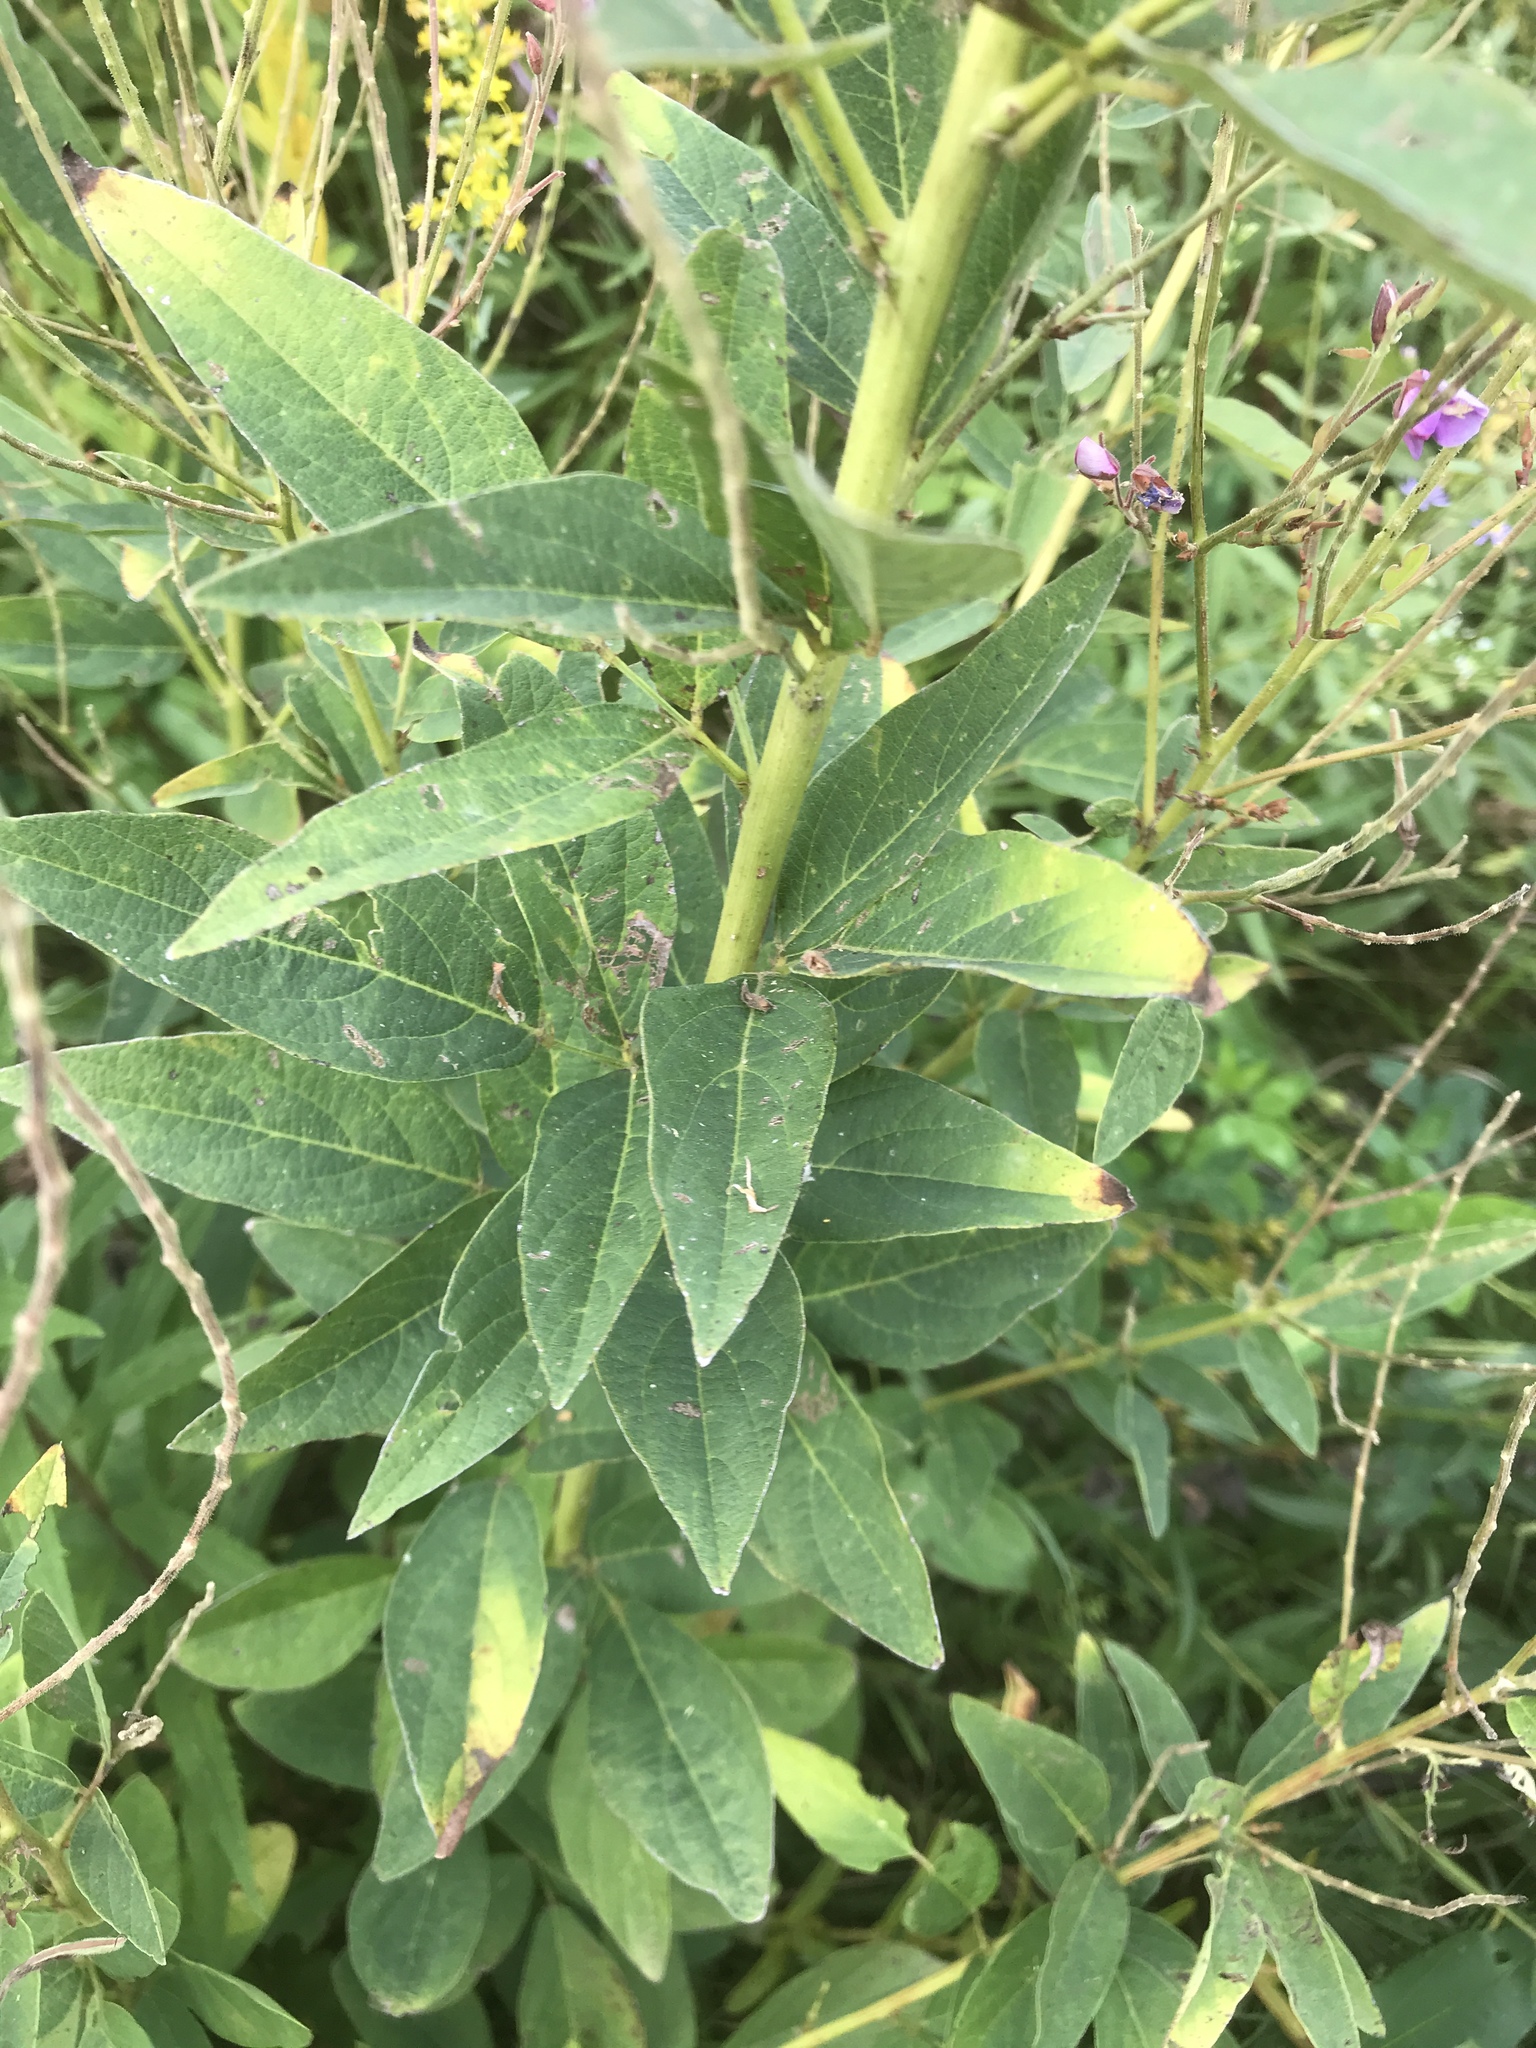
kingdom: Plantae
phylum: Tracheophyta
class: Magnoliopsida
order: Fabales
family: Fabaceae
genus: Desmodium
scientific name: Desmodium canadense
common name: Canada tick-trefoil
